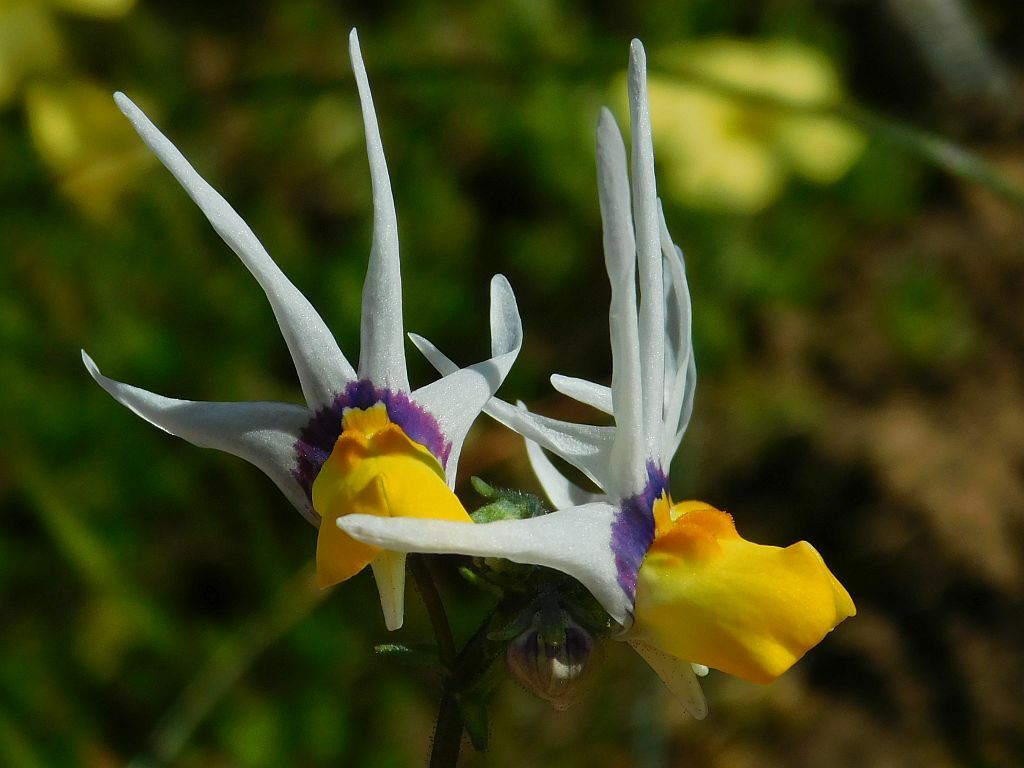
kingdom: Plantae
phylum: Tracheophyta
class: Magnoliopsida
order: Lamiales
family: Scrophulariaceae
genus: Nemesia
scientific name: Nemesia cheiranthus
